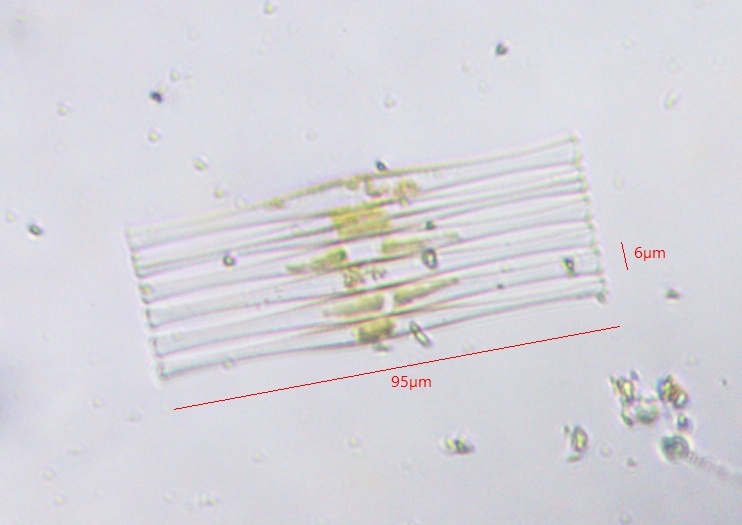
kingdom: Chromista
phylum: Ochrophyta
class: Bacillariophyceae
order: Fragilariales
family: Fragilariaceae
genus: Fragilaria
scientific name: Fragilaria crotonensis
